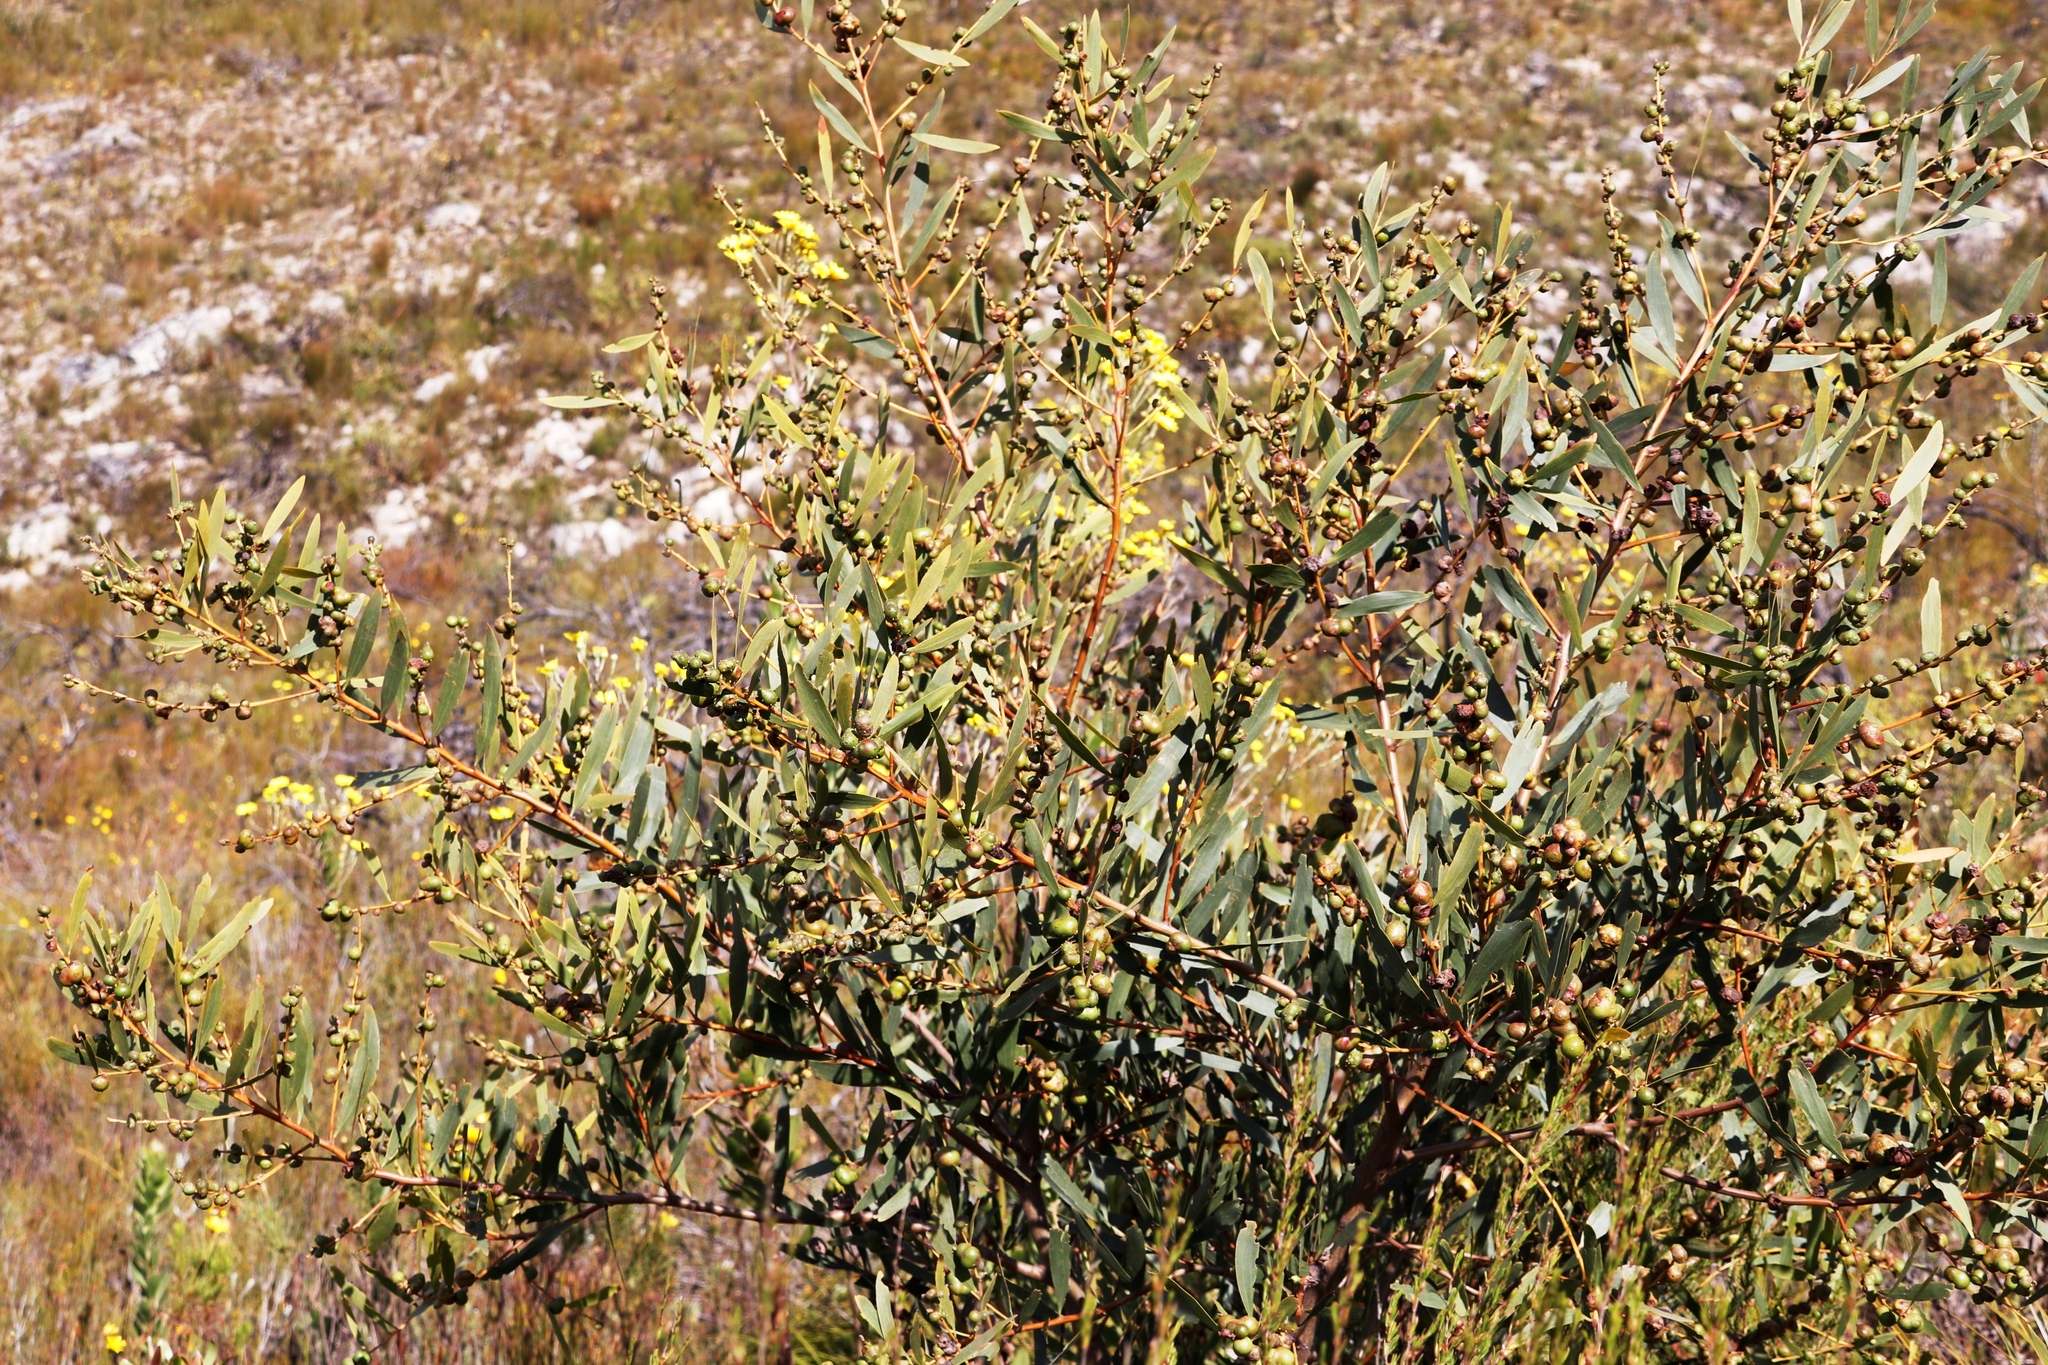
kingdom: Animalia
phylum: Arthropoda
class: Insecta
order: Hymenoptera
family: Pteromalidae
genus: Trichilogaster
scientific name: Trichilogaster acaciaelongifoliae
